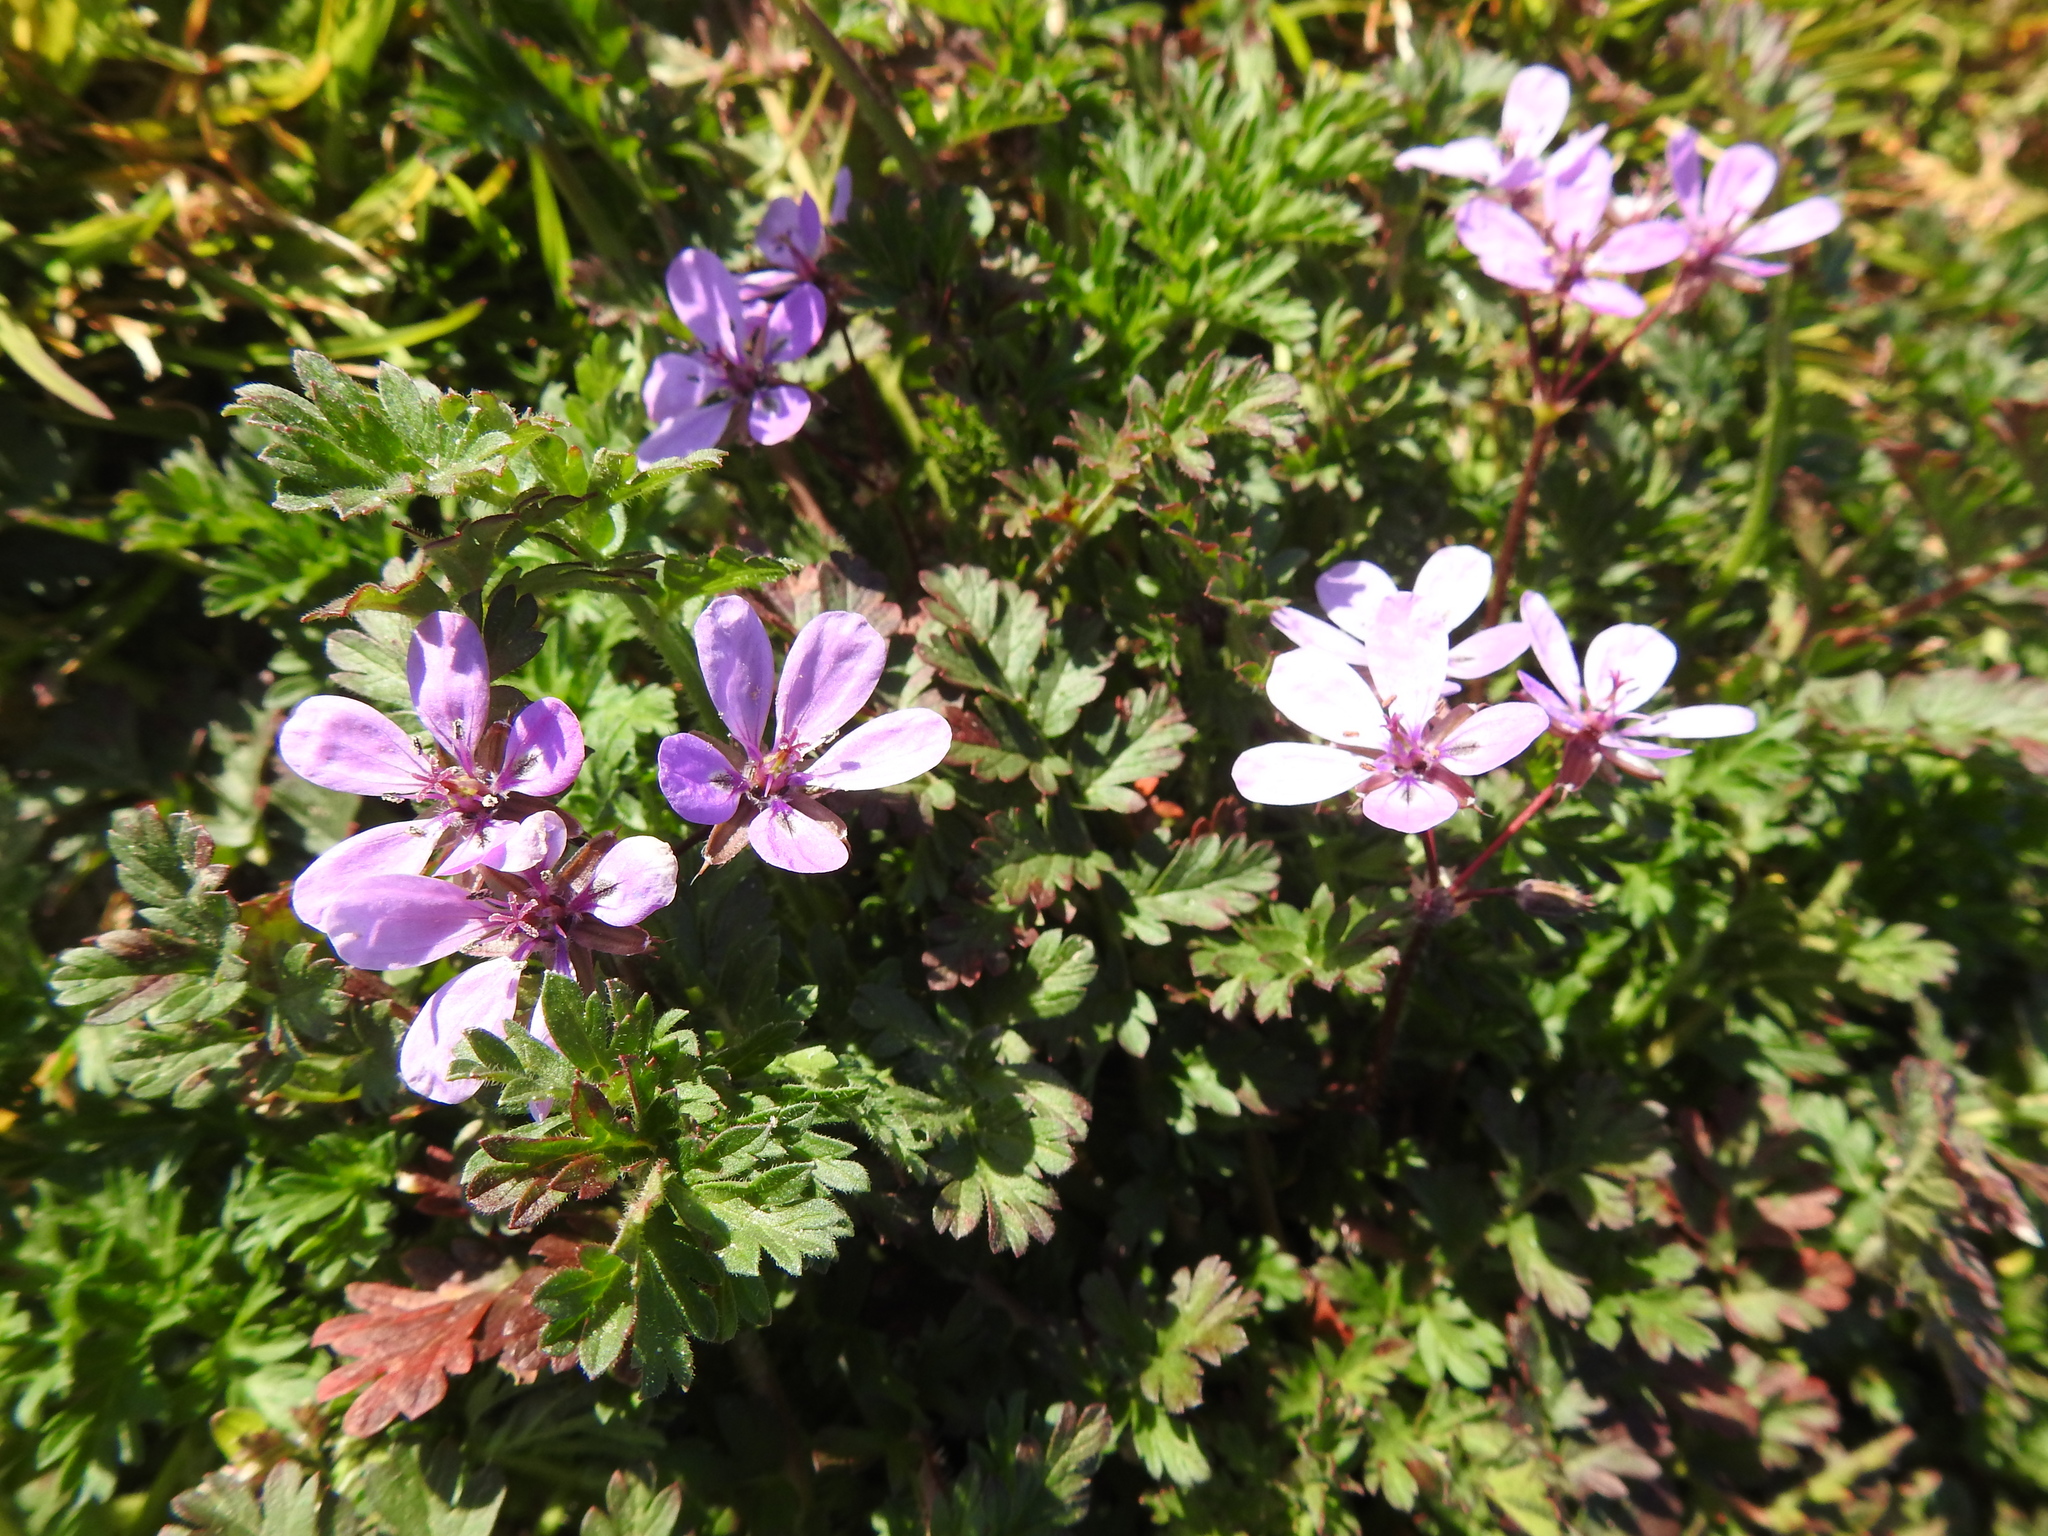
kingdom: Plantae
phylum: Tracheophyta
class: Magnoliopsida
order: Geraniales
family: Geraniaceae
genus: Erodium
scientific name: Erodium cicutarium
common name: Common stork's-bill
